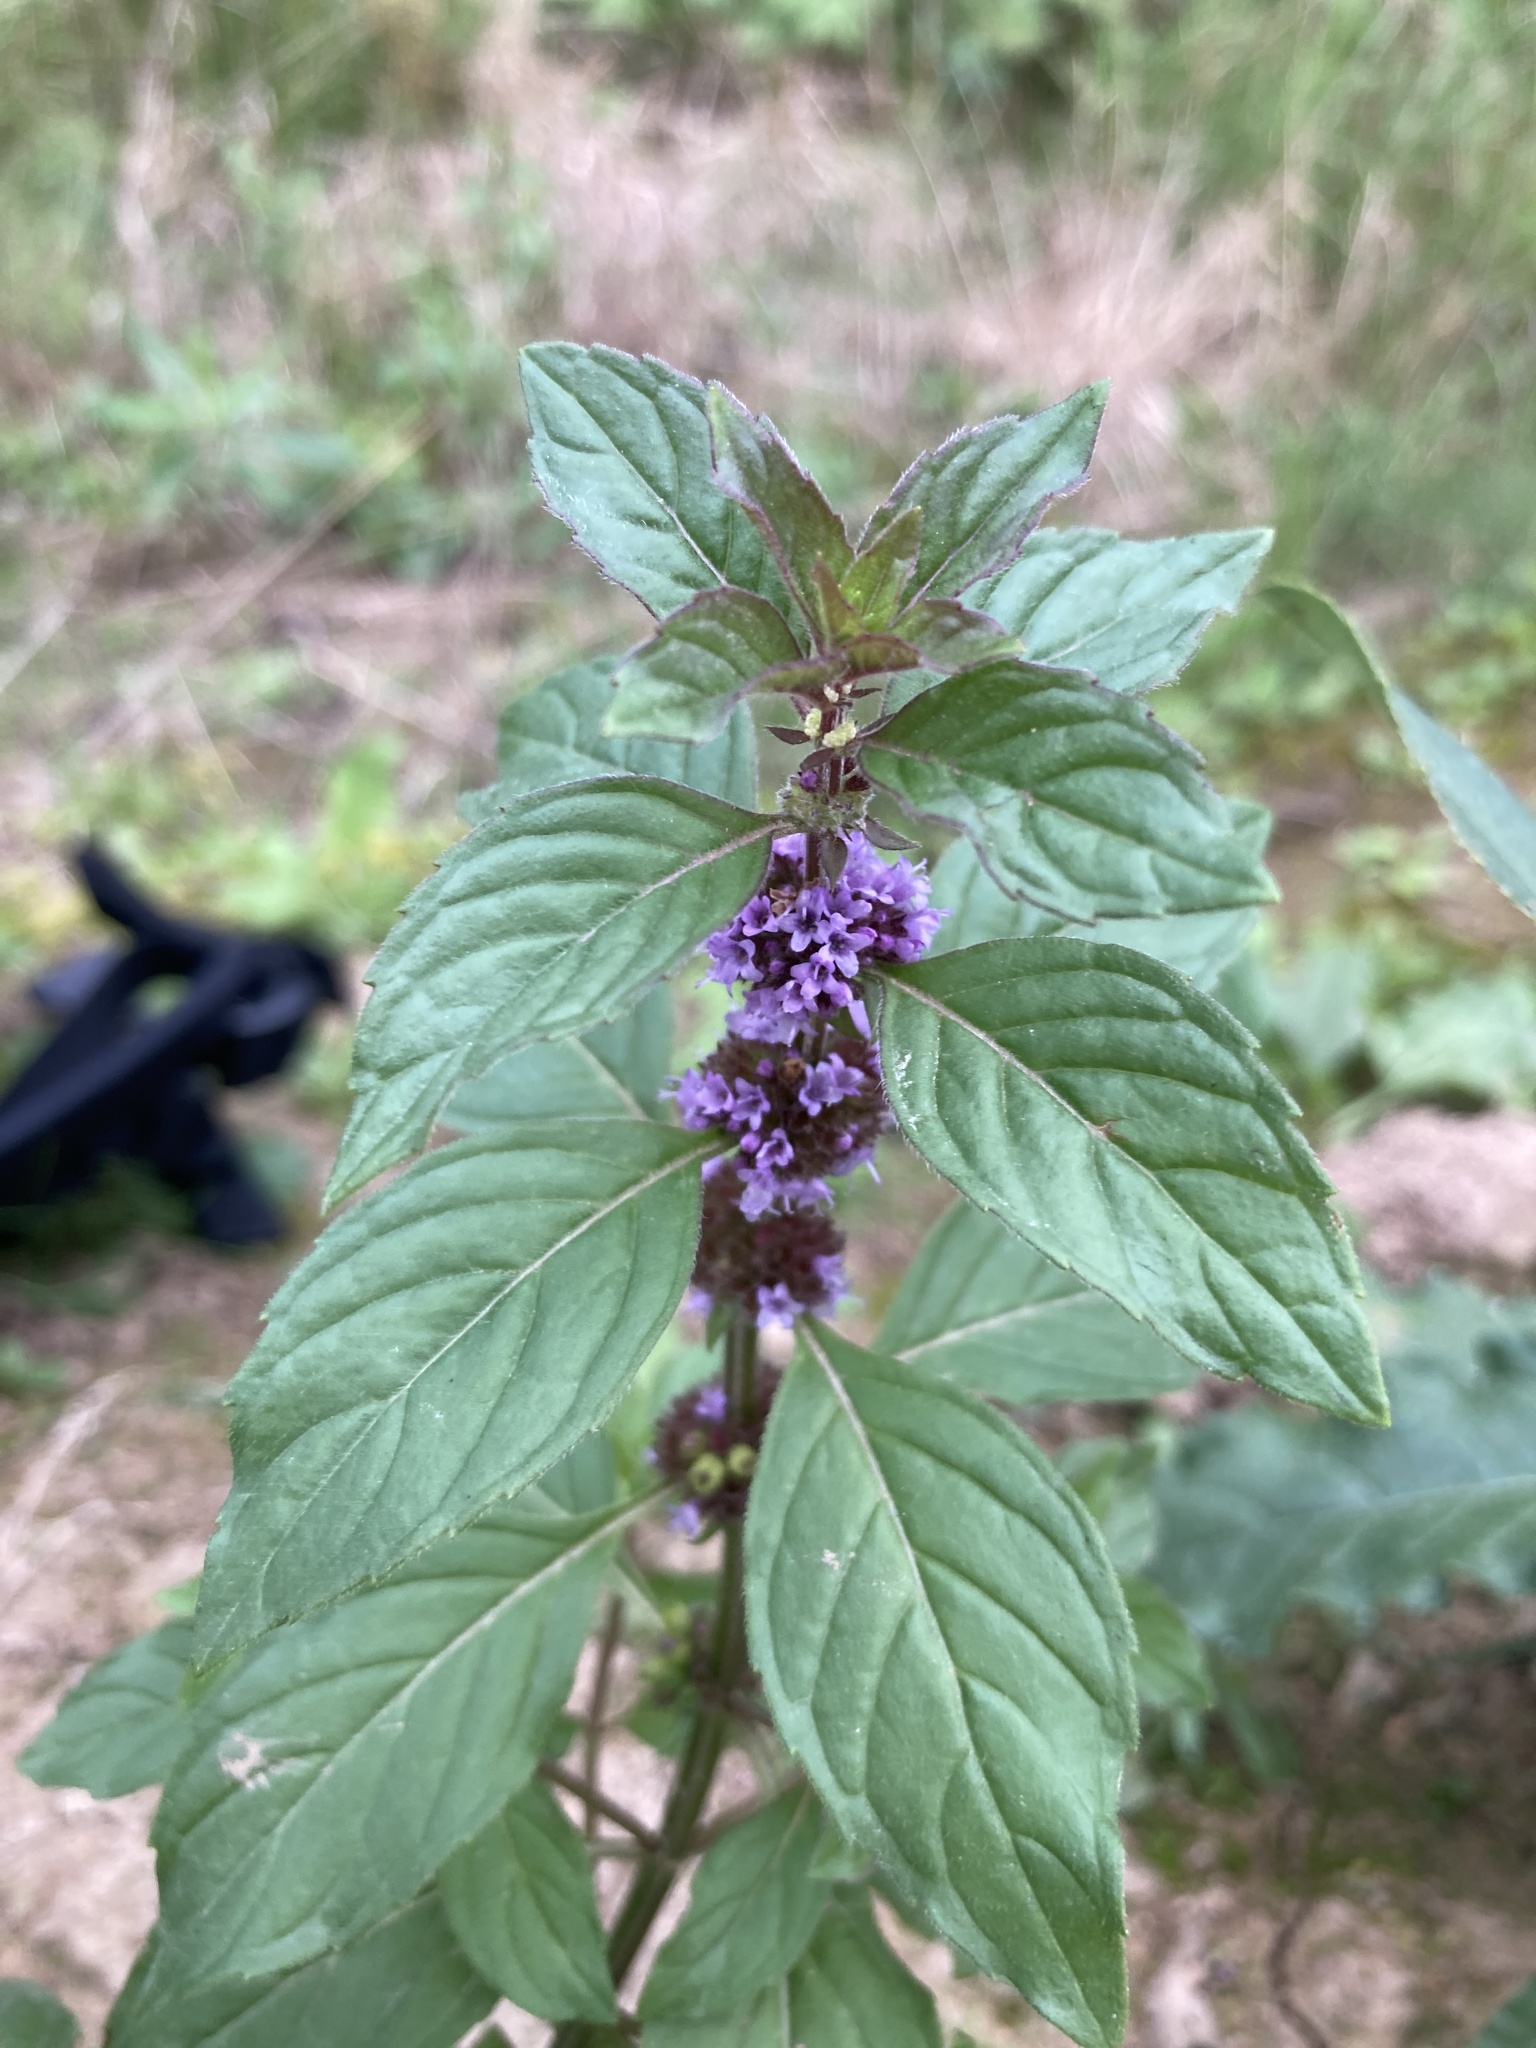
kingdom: Plantae
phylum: Tracheophyta
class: Magnoliopsida
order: Lamiales
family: Lamiaceae
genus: Mentha
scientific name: Mentha arvensis
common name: Corn mint
